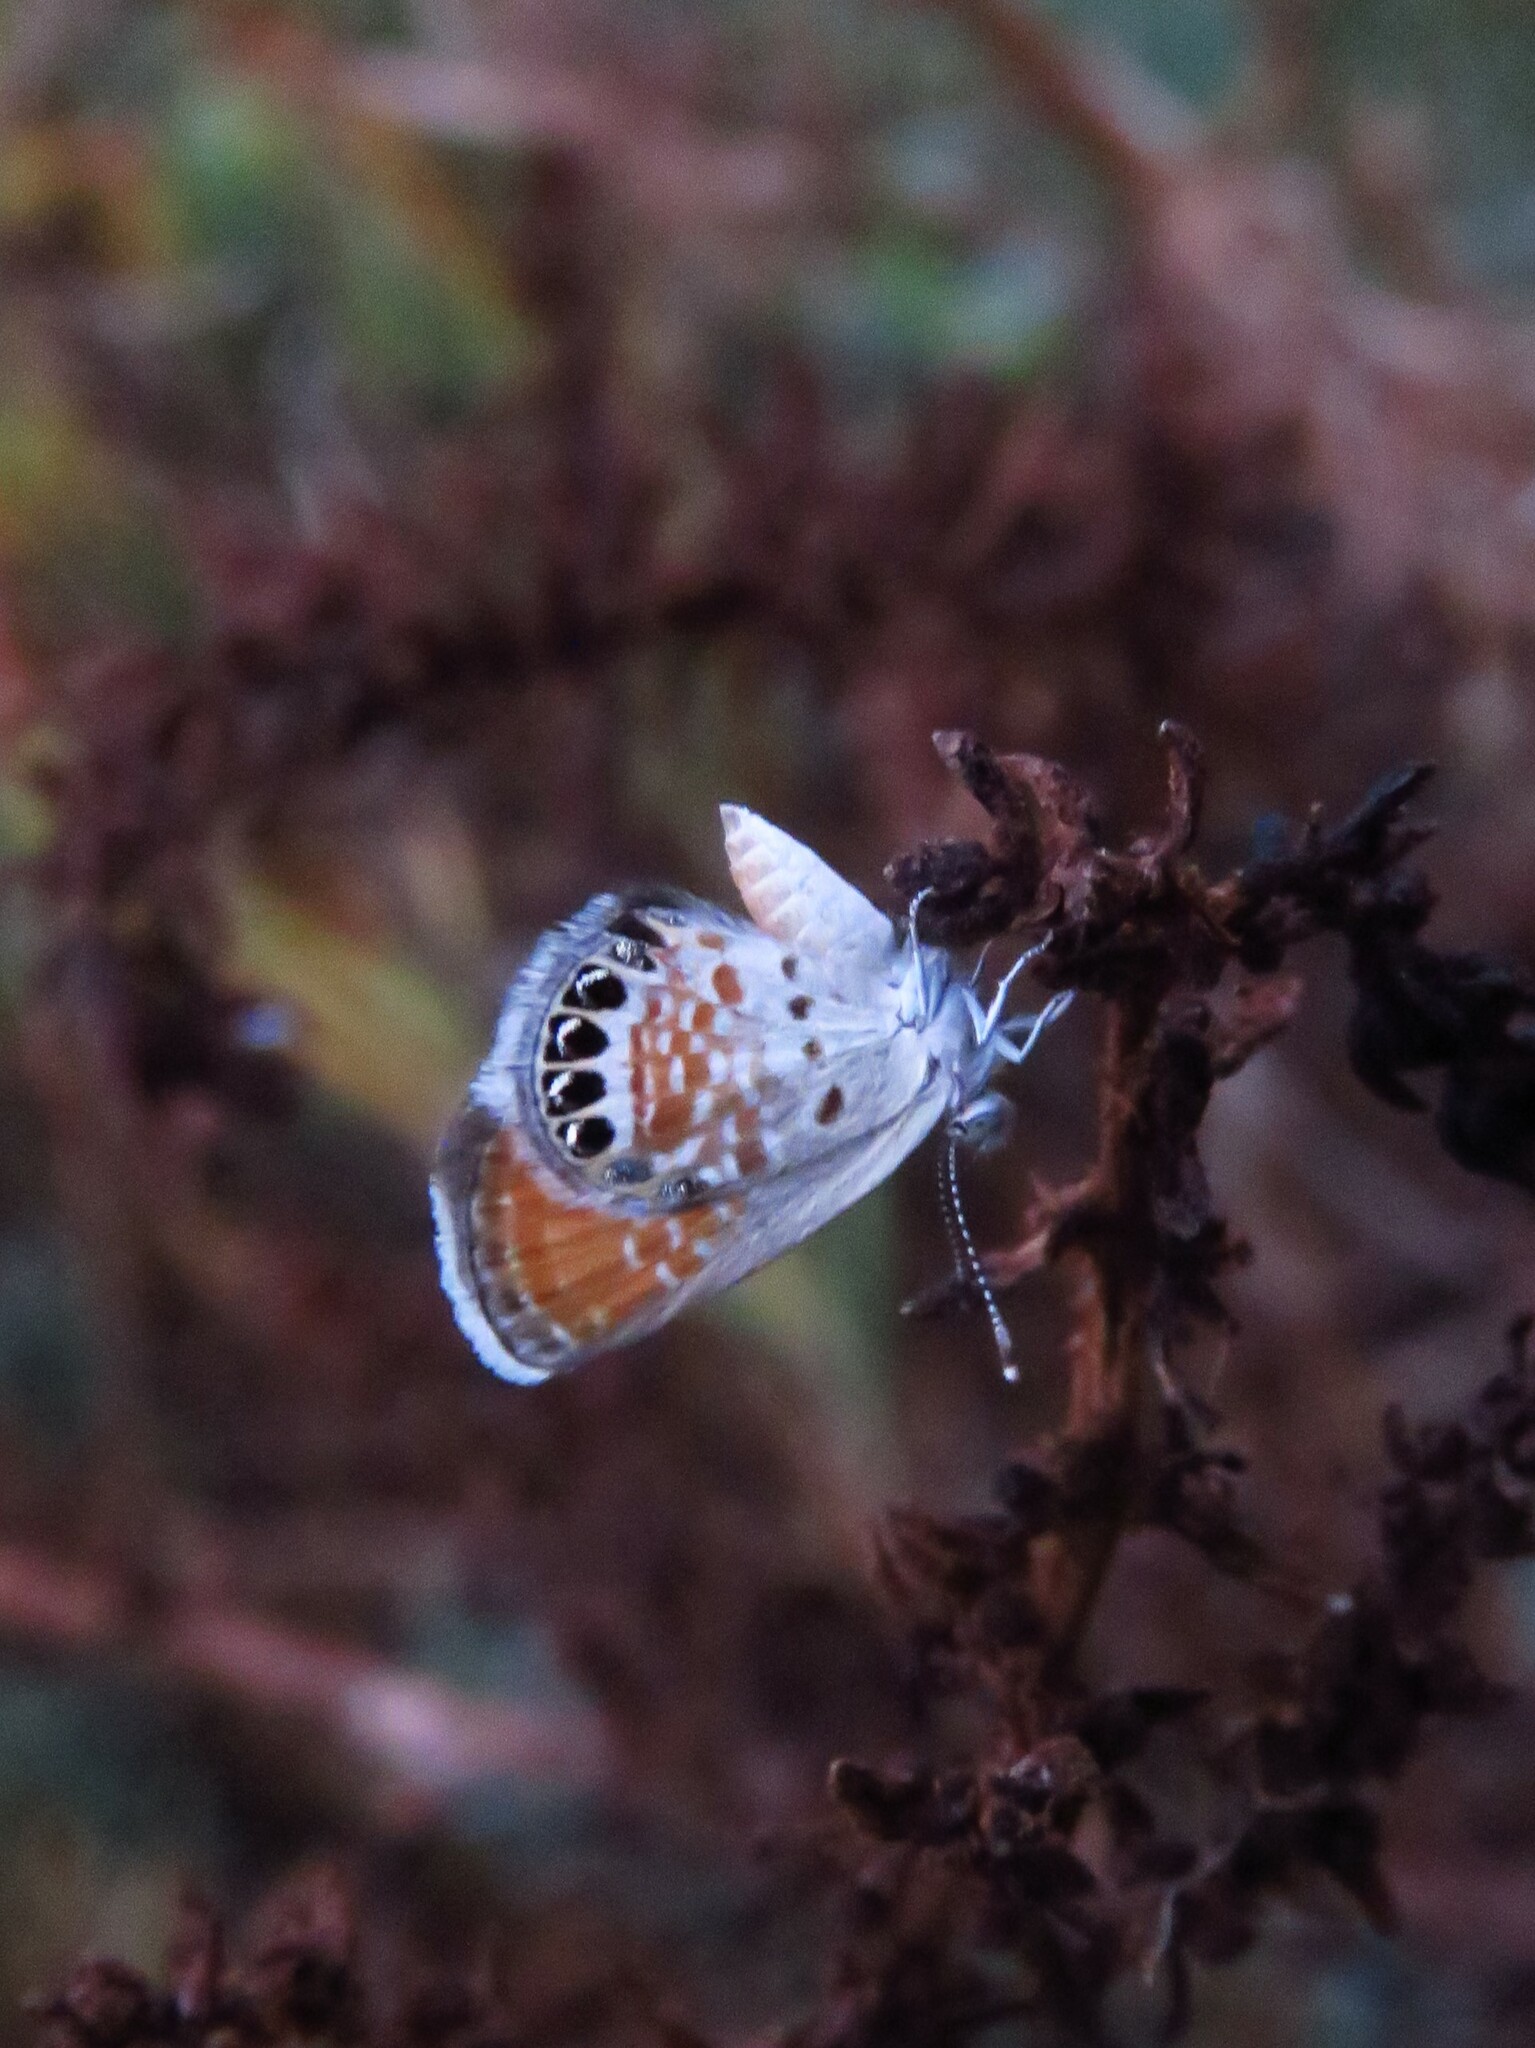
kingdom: Animalia
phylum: Arthropoda
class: Insecta
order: Lepidoptera
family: Lycaenidae
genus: Brephidium
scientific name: Brephidium exilis
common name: Pygmy blue
